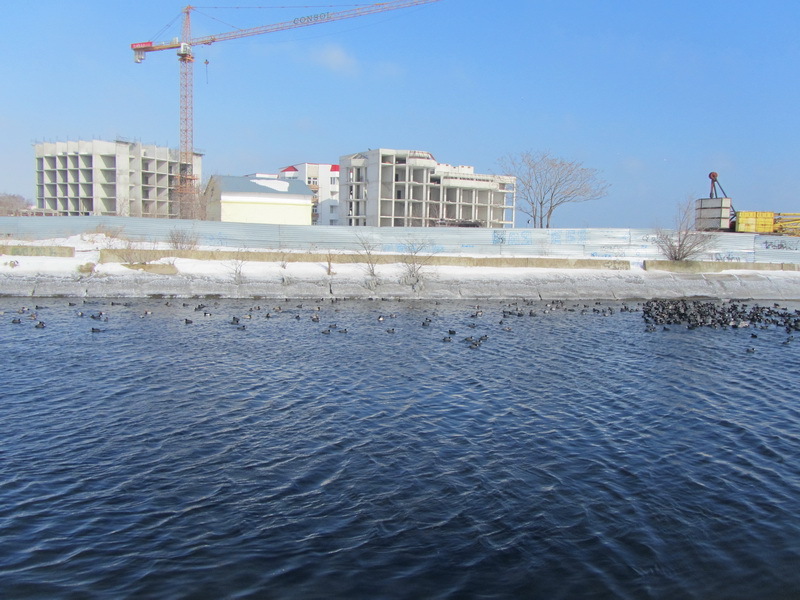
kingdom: Animalia
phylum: Chordata
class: Aves
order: Gruiformes
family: Rallidae
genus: Fulica
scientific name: Fulica atra
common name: Eurasian coot
